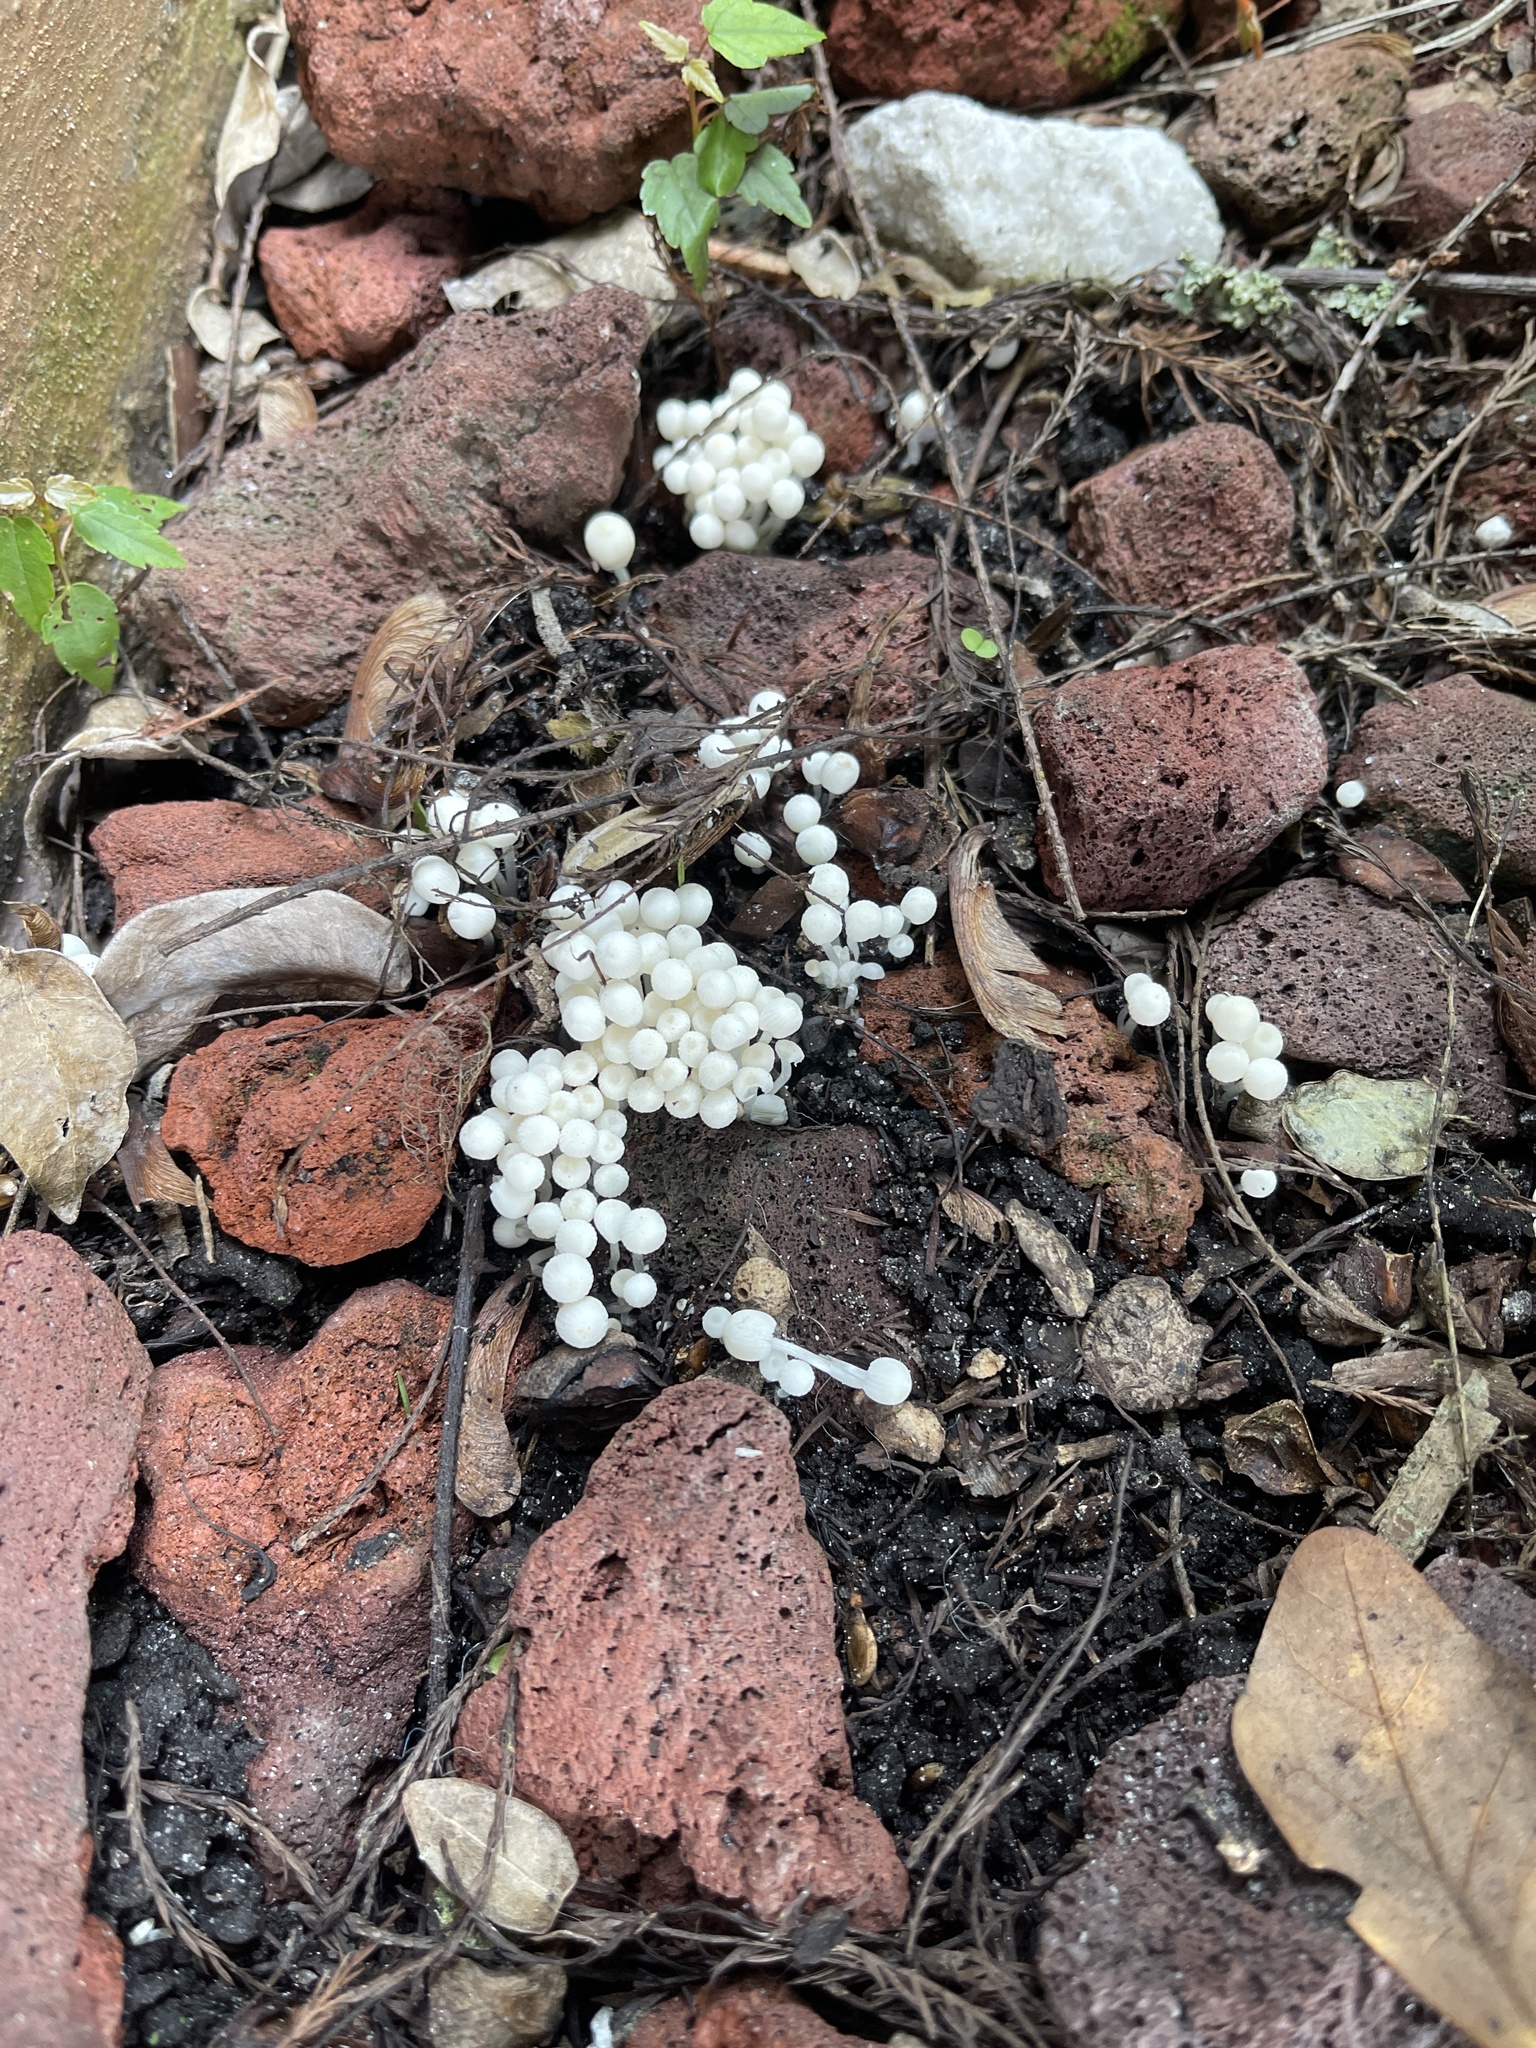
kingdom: Fungi
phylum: Basidiomycota
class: Agaricomycetes
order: Agaricales
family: Psathyrellaceae
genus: Coprinellus
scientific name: Coprinellus disseminatus
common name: Fairies' bonnets
